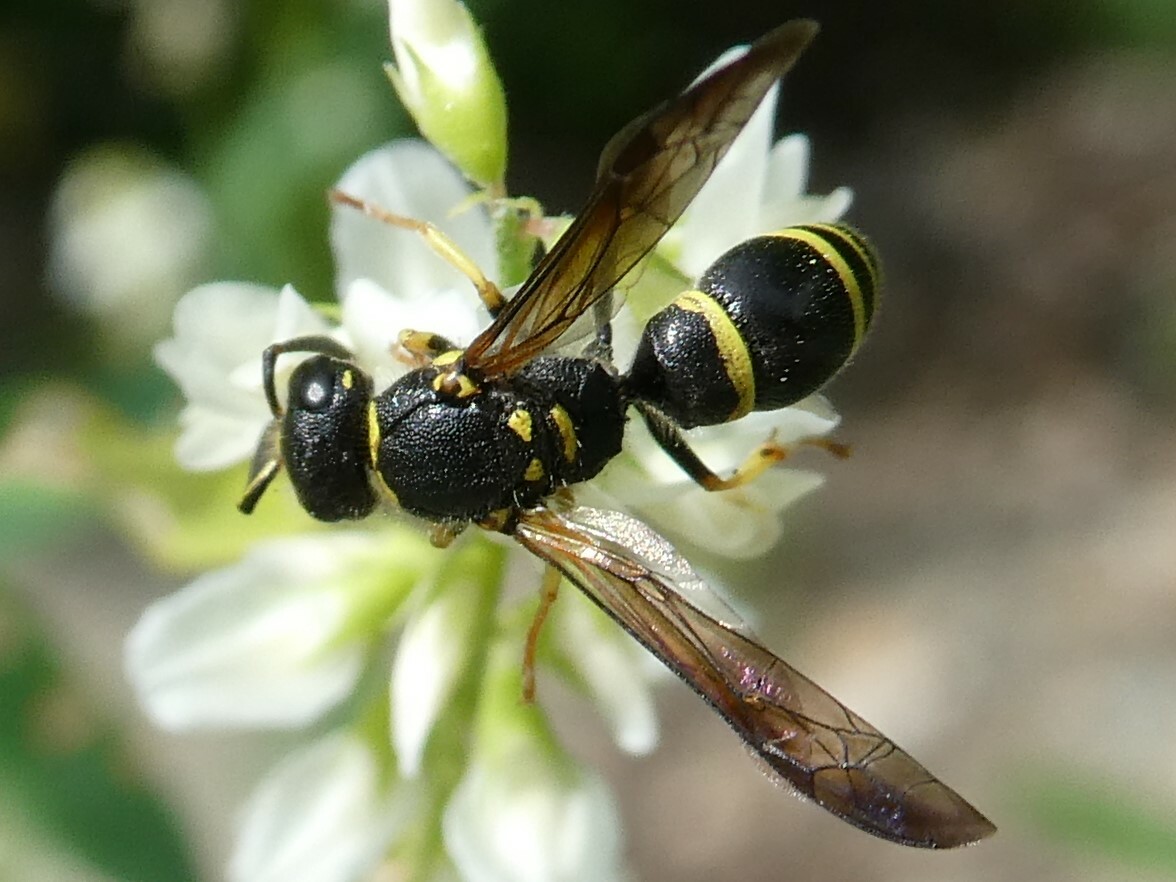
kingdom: Animalia
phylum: Arthropoda
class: Insecta
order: Hymenoptera
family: Vespidae
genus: Ancistrocerus
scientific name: Ancistrocerus adiabatus
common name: Bramble mason wasp
